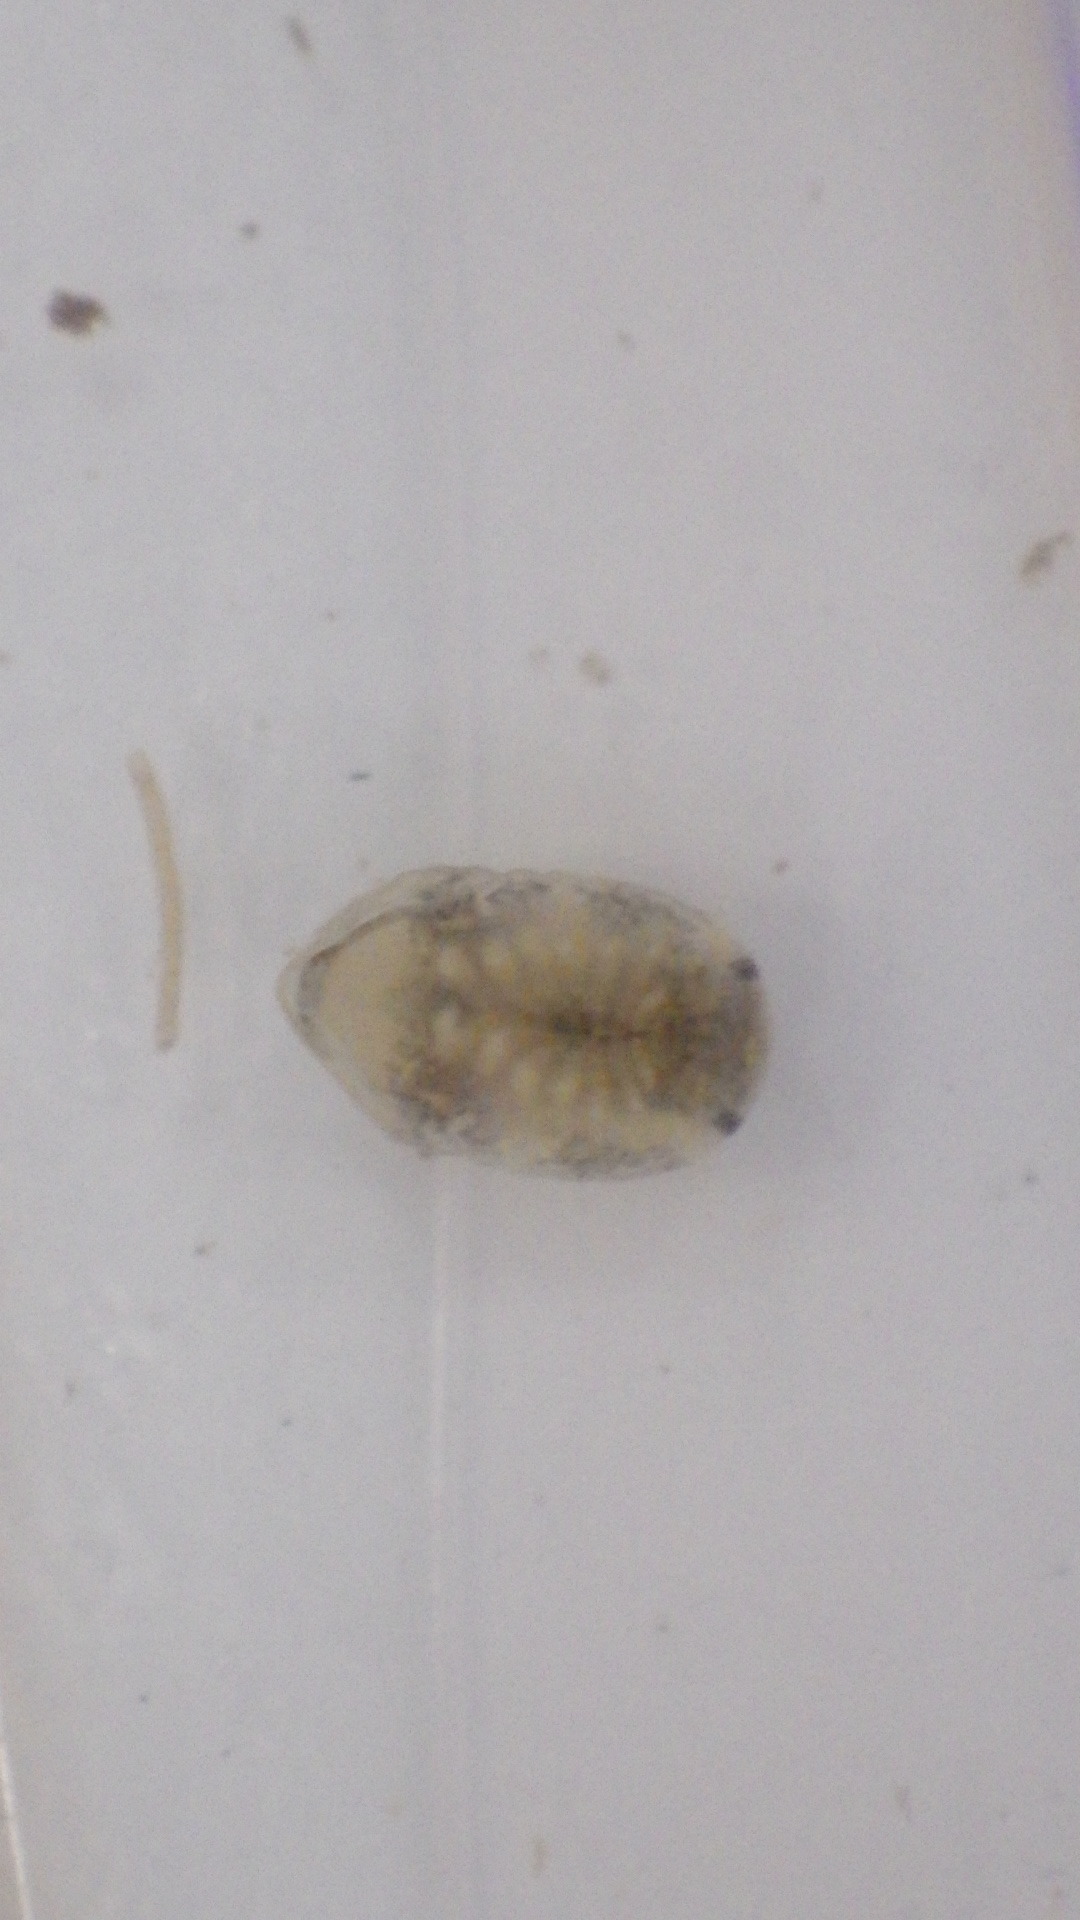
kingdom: Animalia
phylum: Arthropoda
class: Malacostraca
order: Isopoda
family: Sphaeromatidae
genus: Cassidinidea
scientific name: Cassidinidea ovalis
